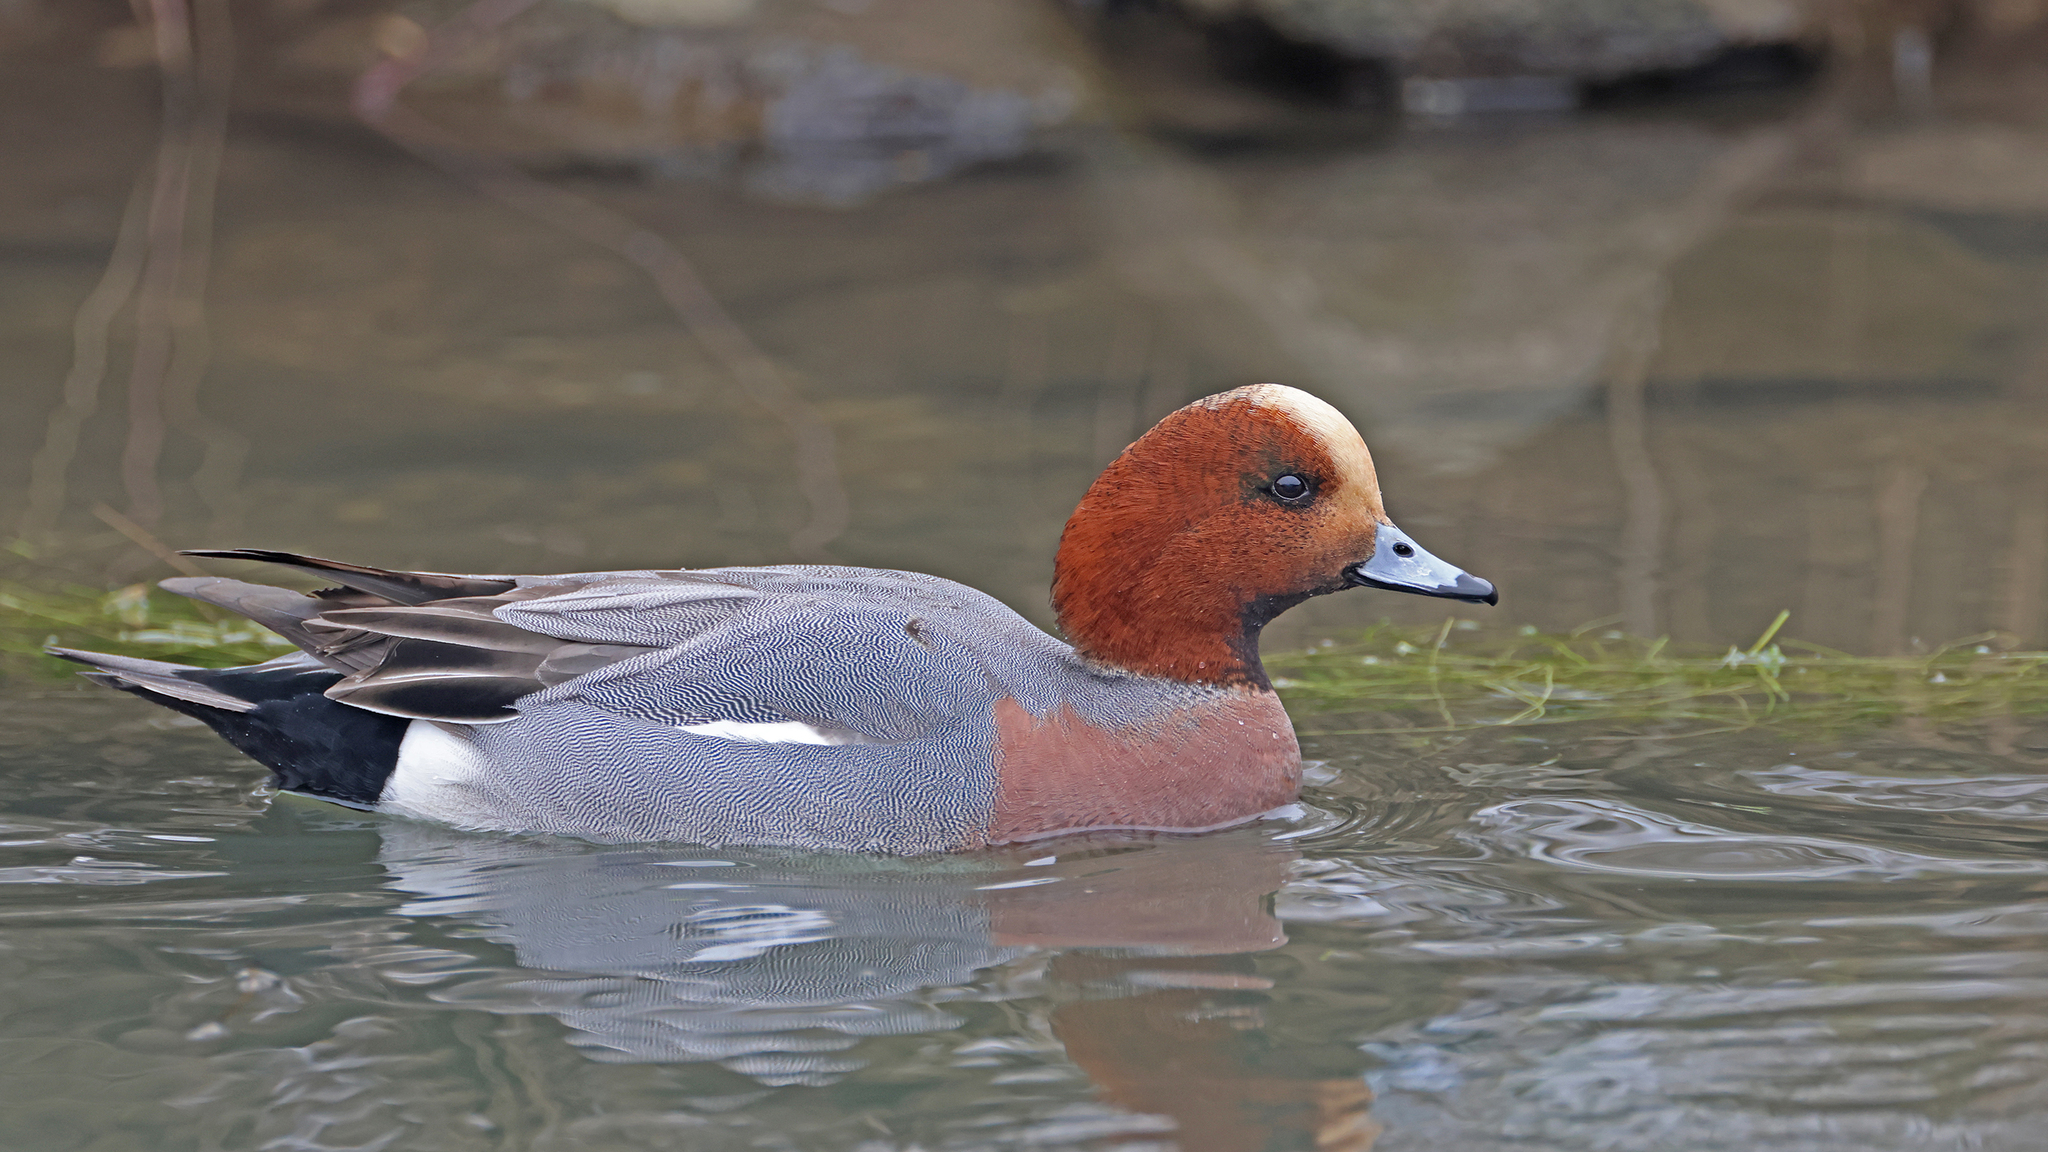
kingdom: Animalia
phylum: Chordata
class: Aves
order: Anseriformes
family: Anatidae
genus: Mareca
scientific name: Mareca penelope
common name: Eurasian wigeon
